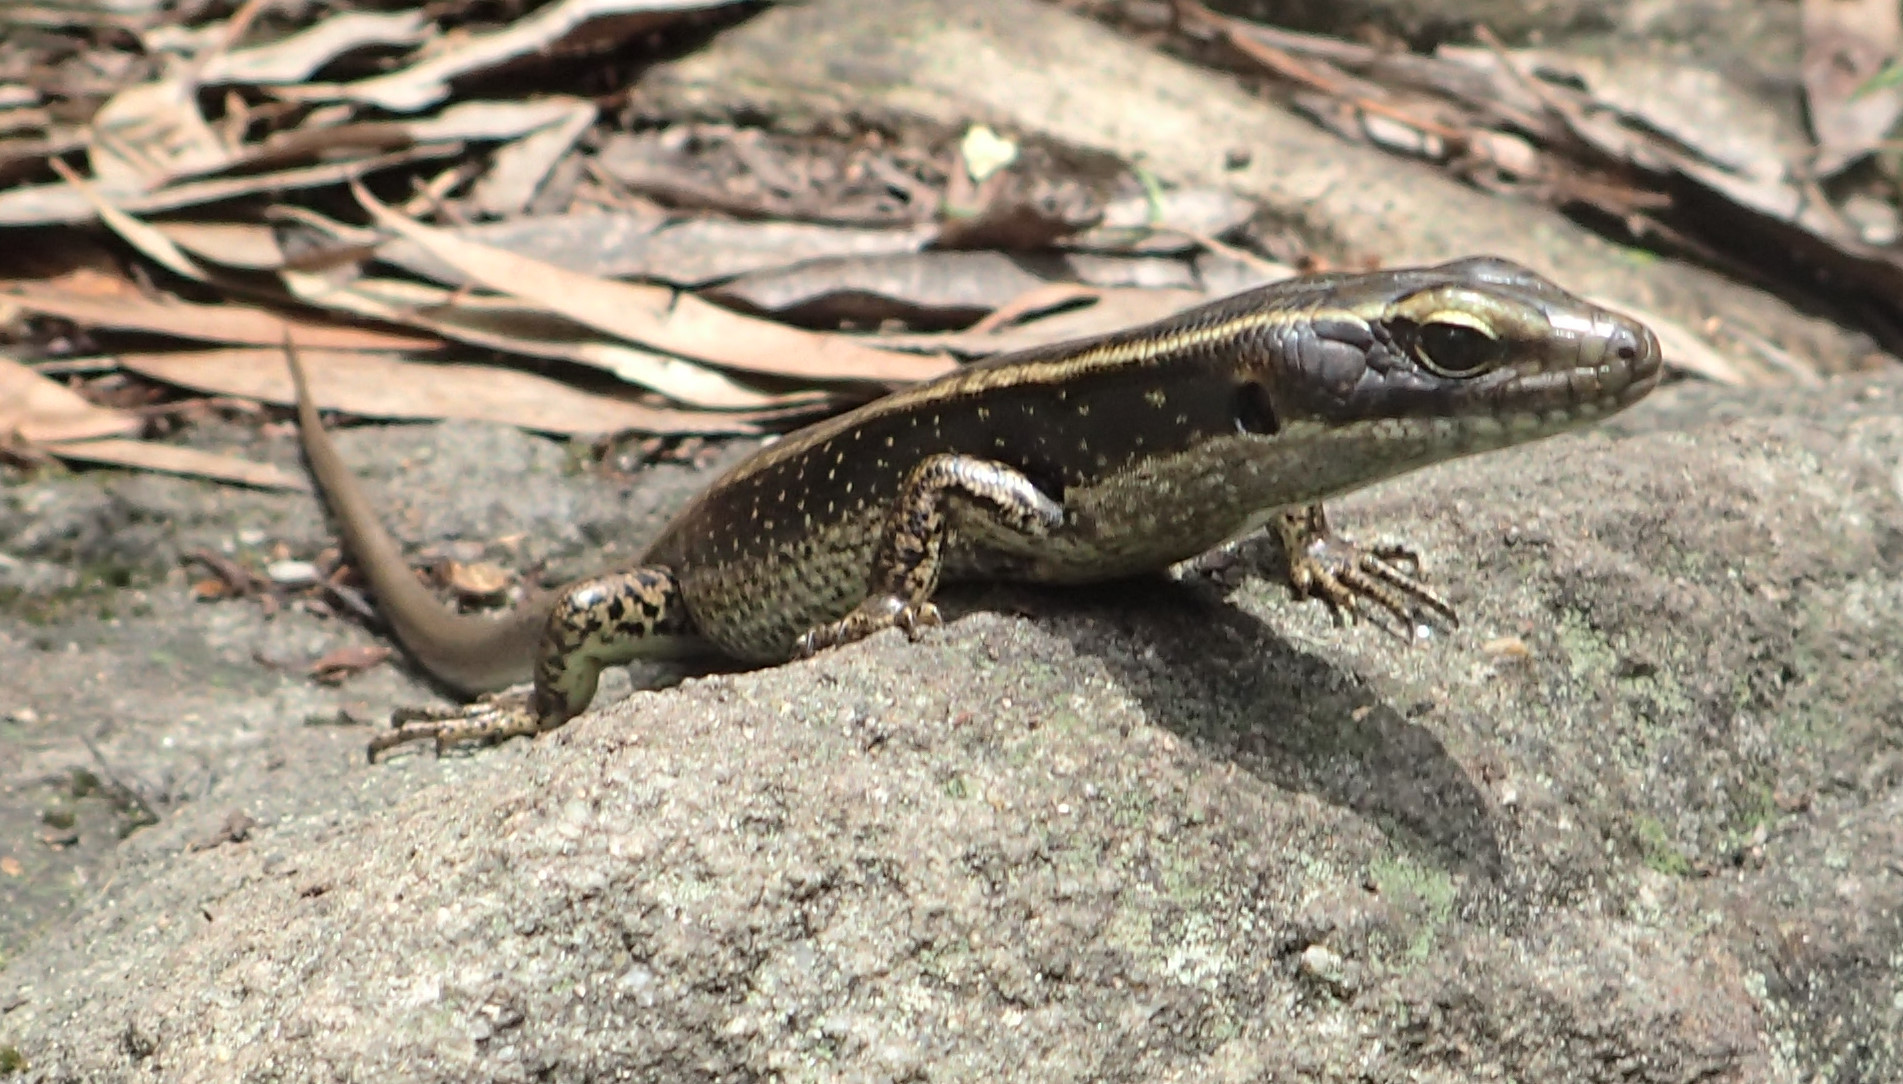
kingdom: Animalia
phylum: Chordata
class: Squamata
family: Scincidae
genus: Eulamprus
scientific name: Eulamprus quoyii
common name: Eastern water skink
